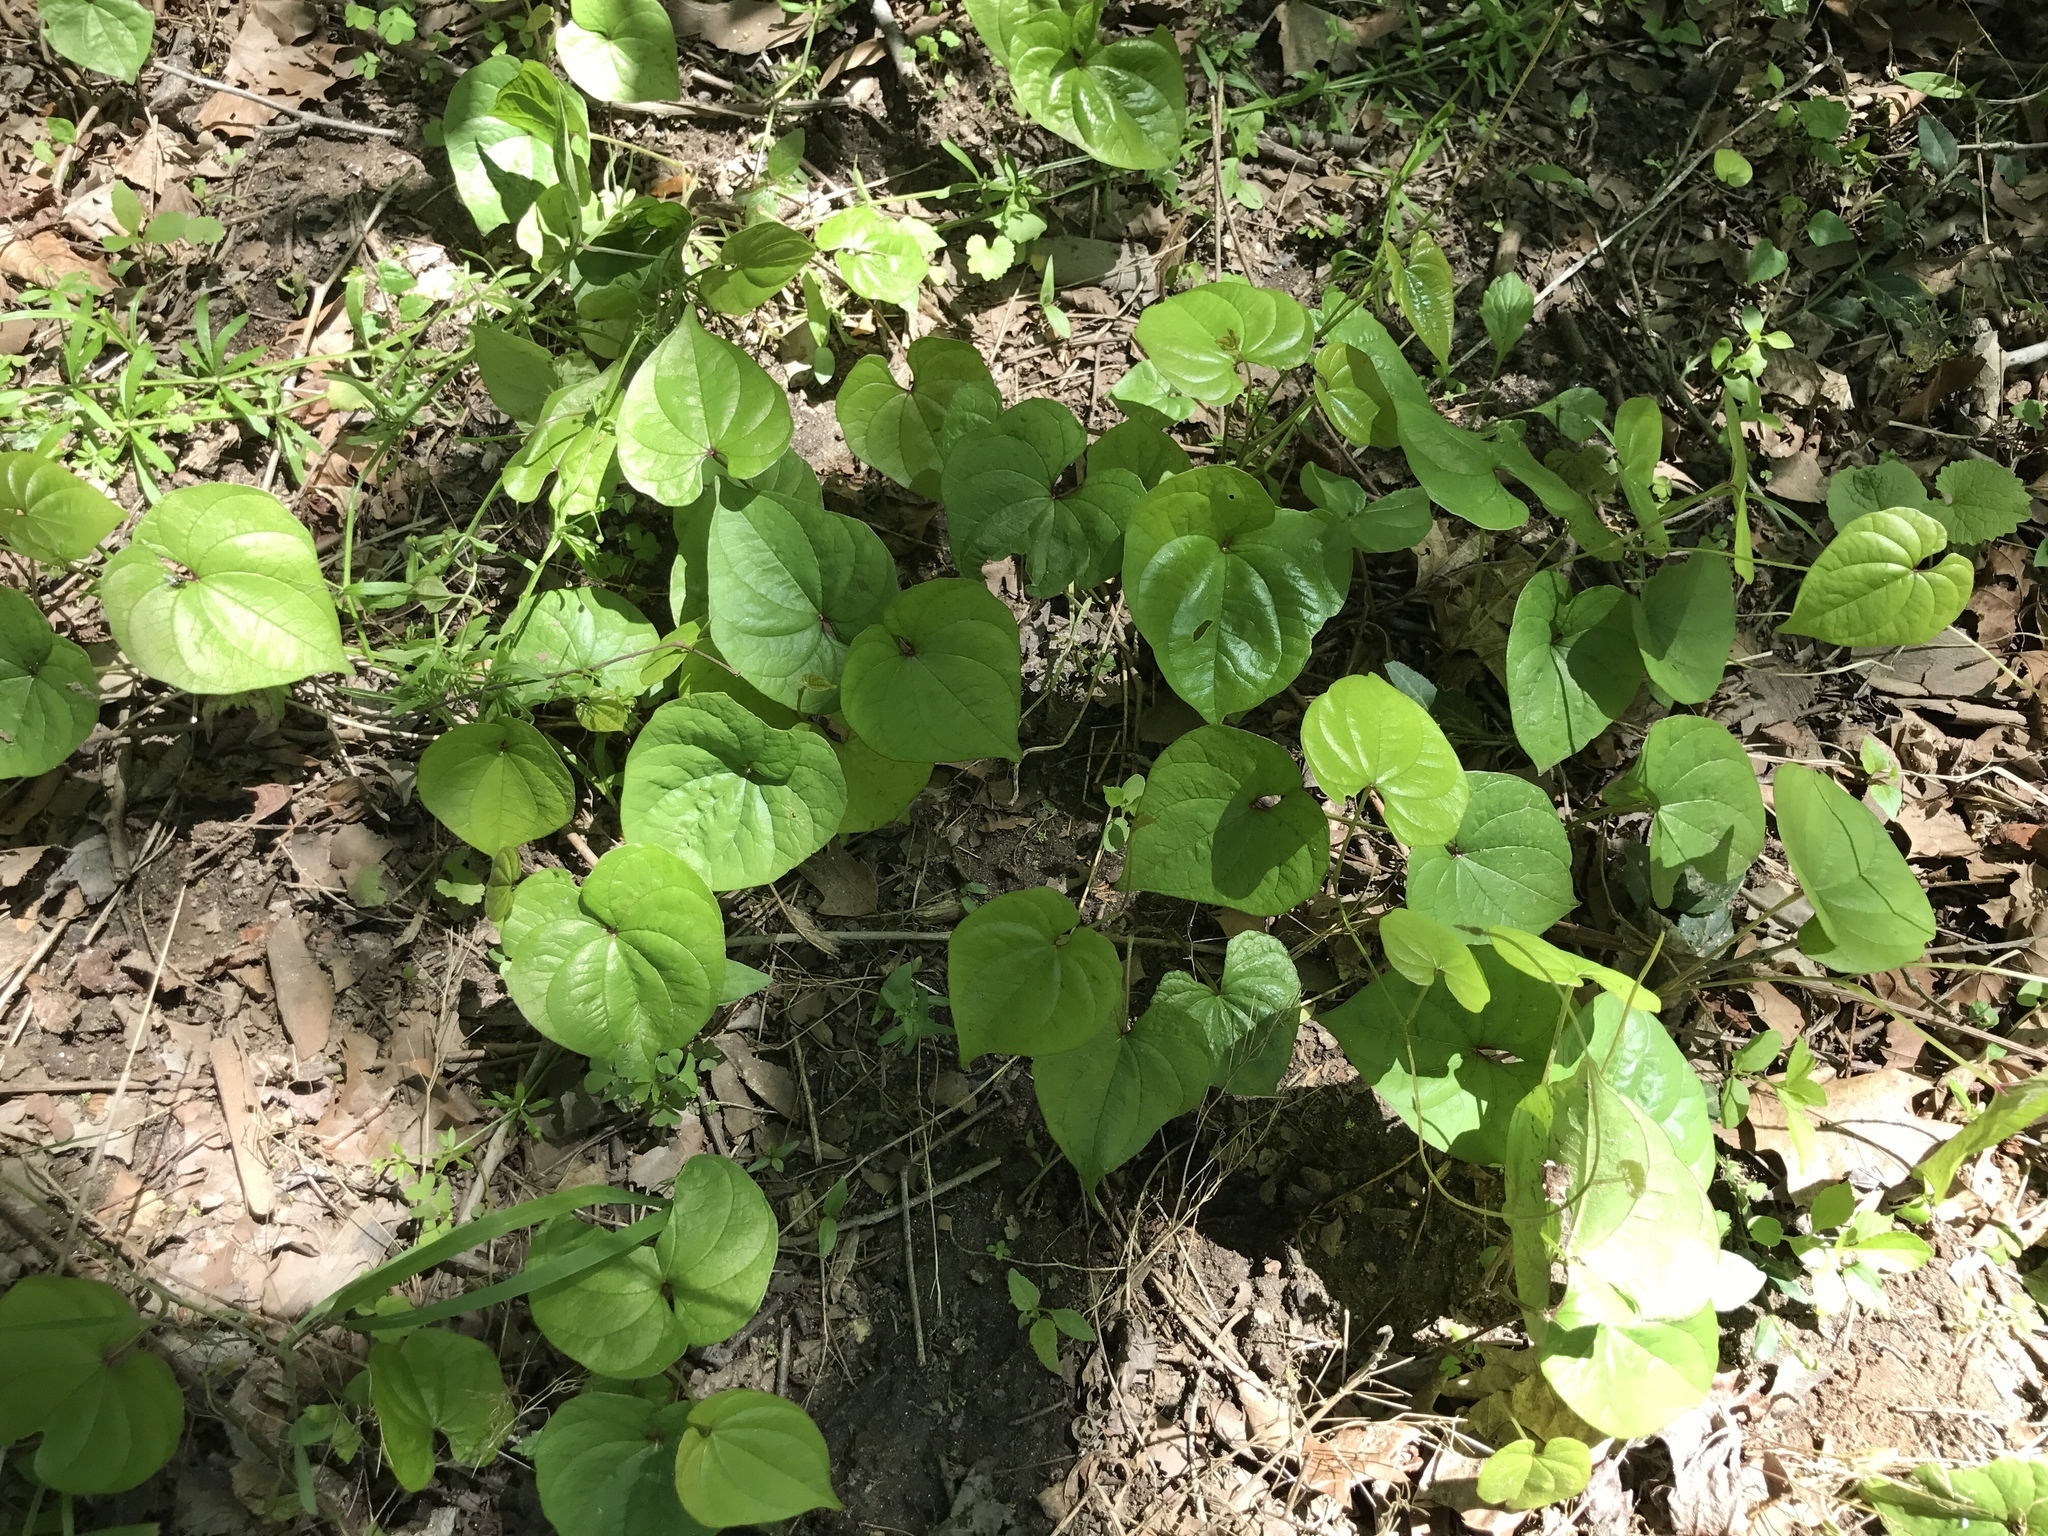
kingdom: Plantae
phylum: Tracheophyta
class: Liliopsida
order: Dioscoreales
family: Dioscoreaceae
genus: Dioscorea
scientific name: Dioscorea polystachya
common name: Chinese yam
